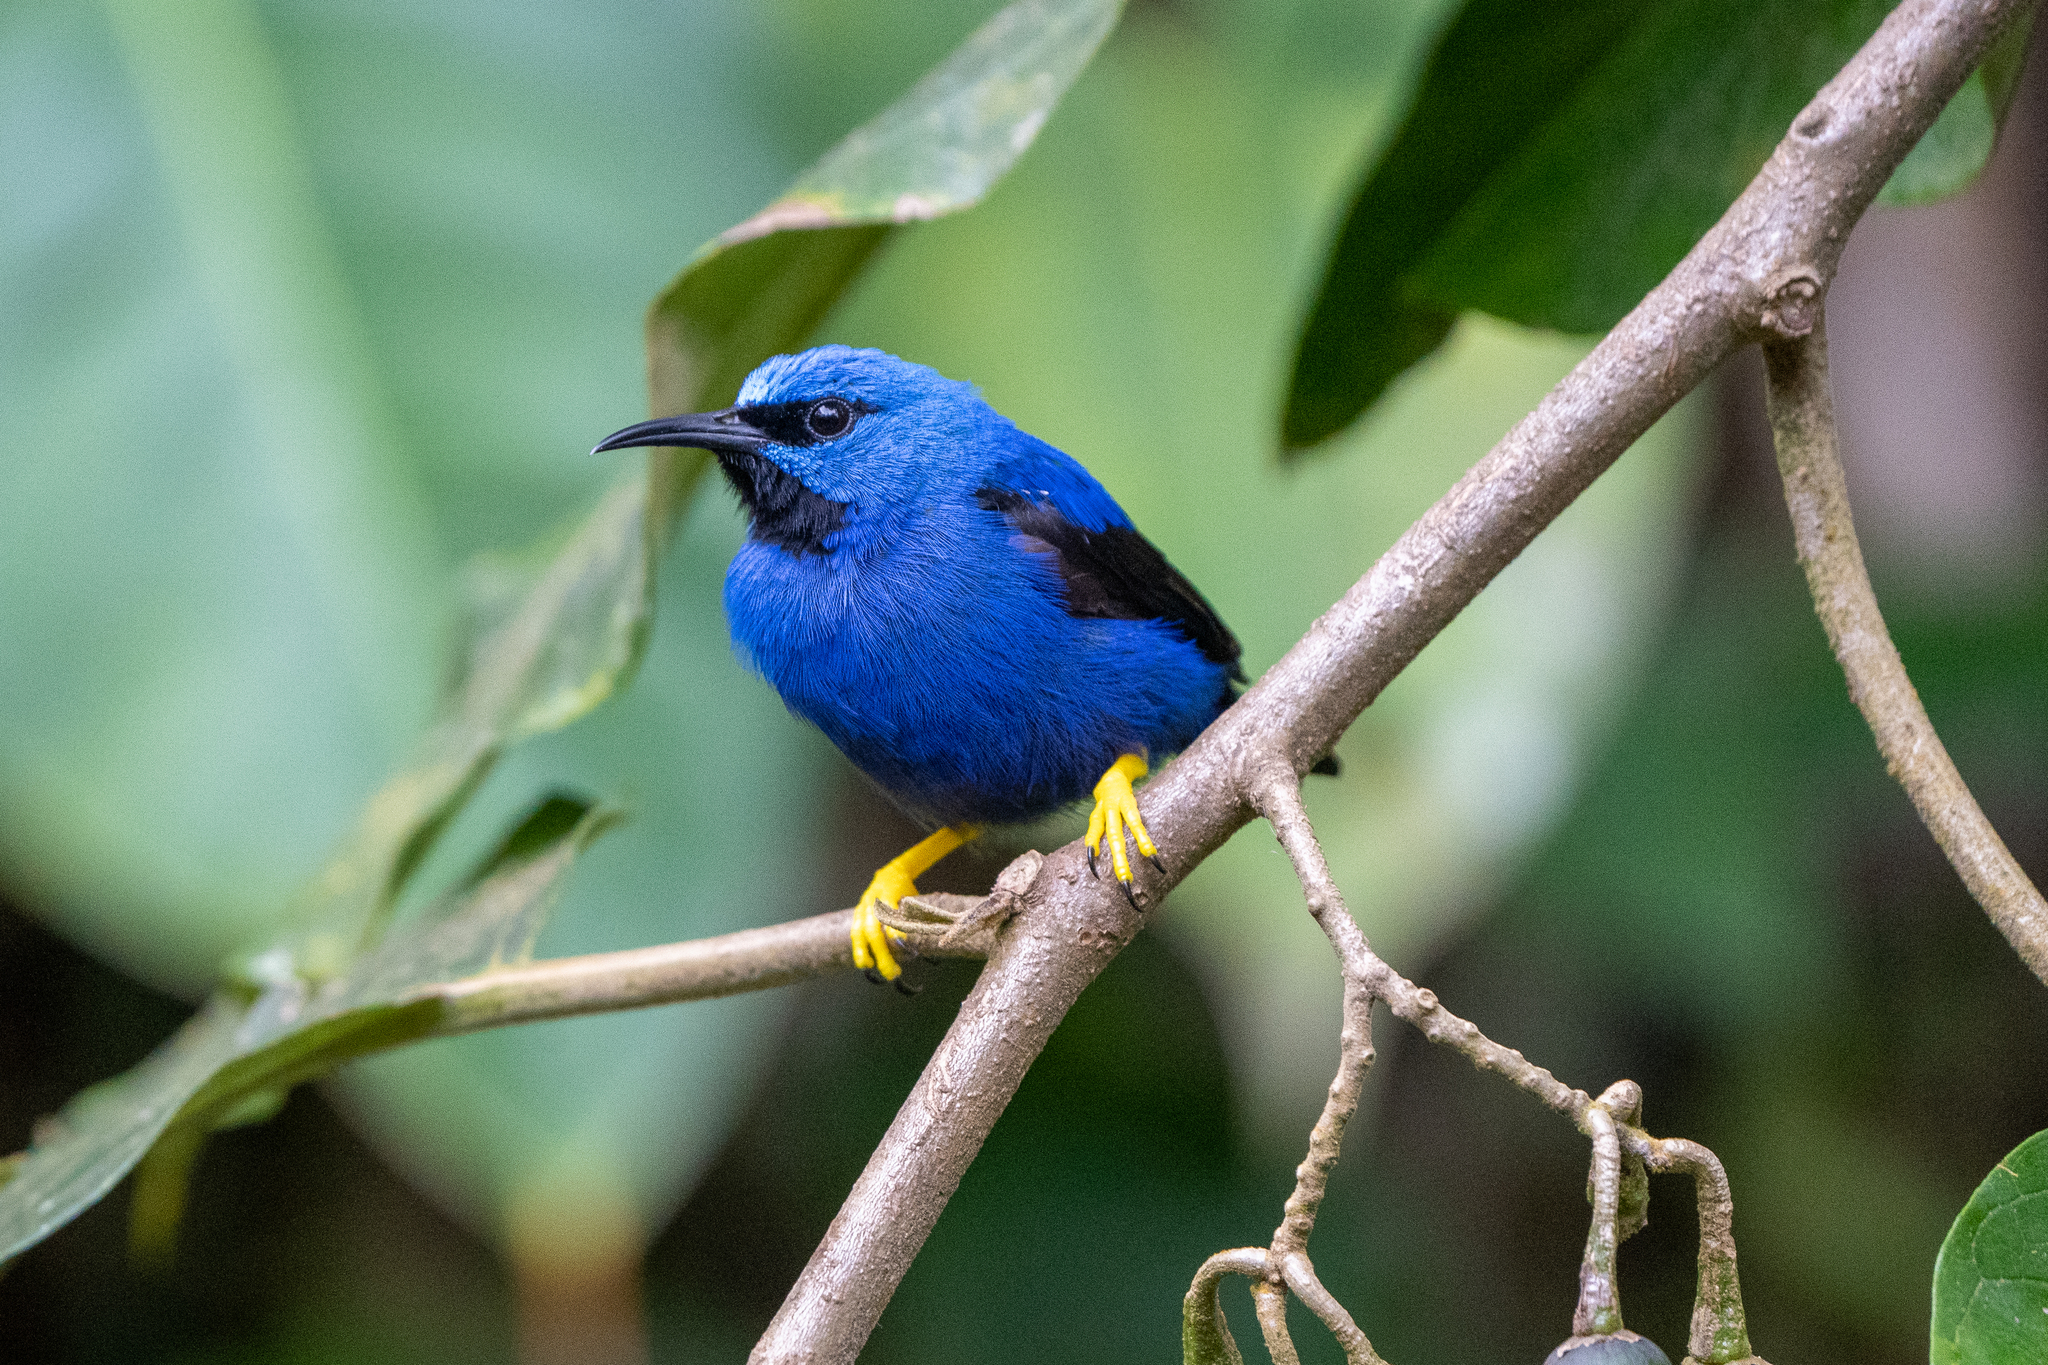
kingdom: Animalia
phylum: Chordata
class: Aves
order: Passeriformes
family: Thraupidae
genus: Cyanerpes
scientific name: Cyanerpes lucidus
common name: Shining honeycreeper
